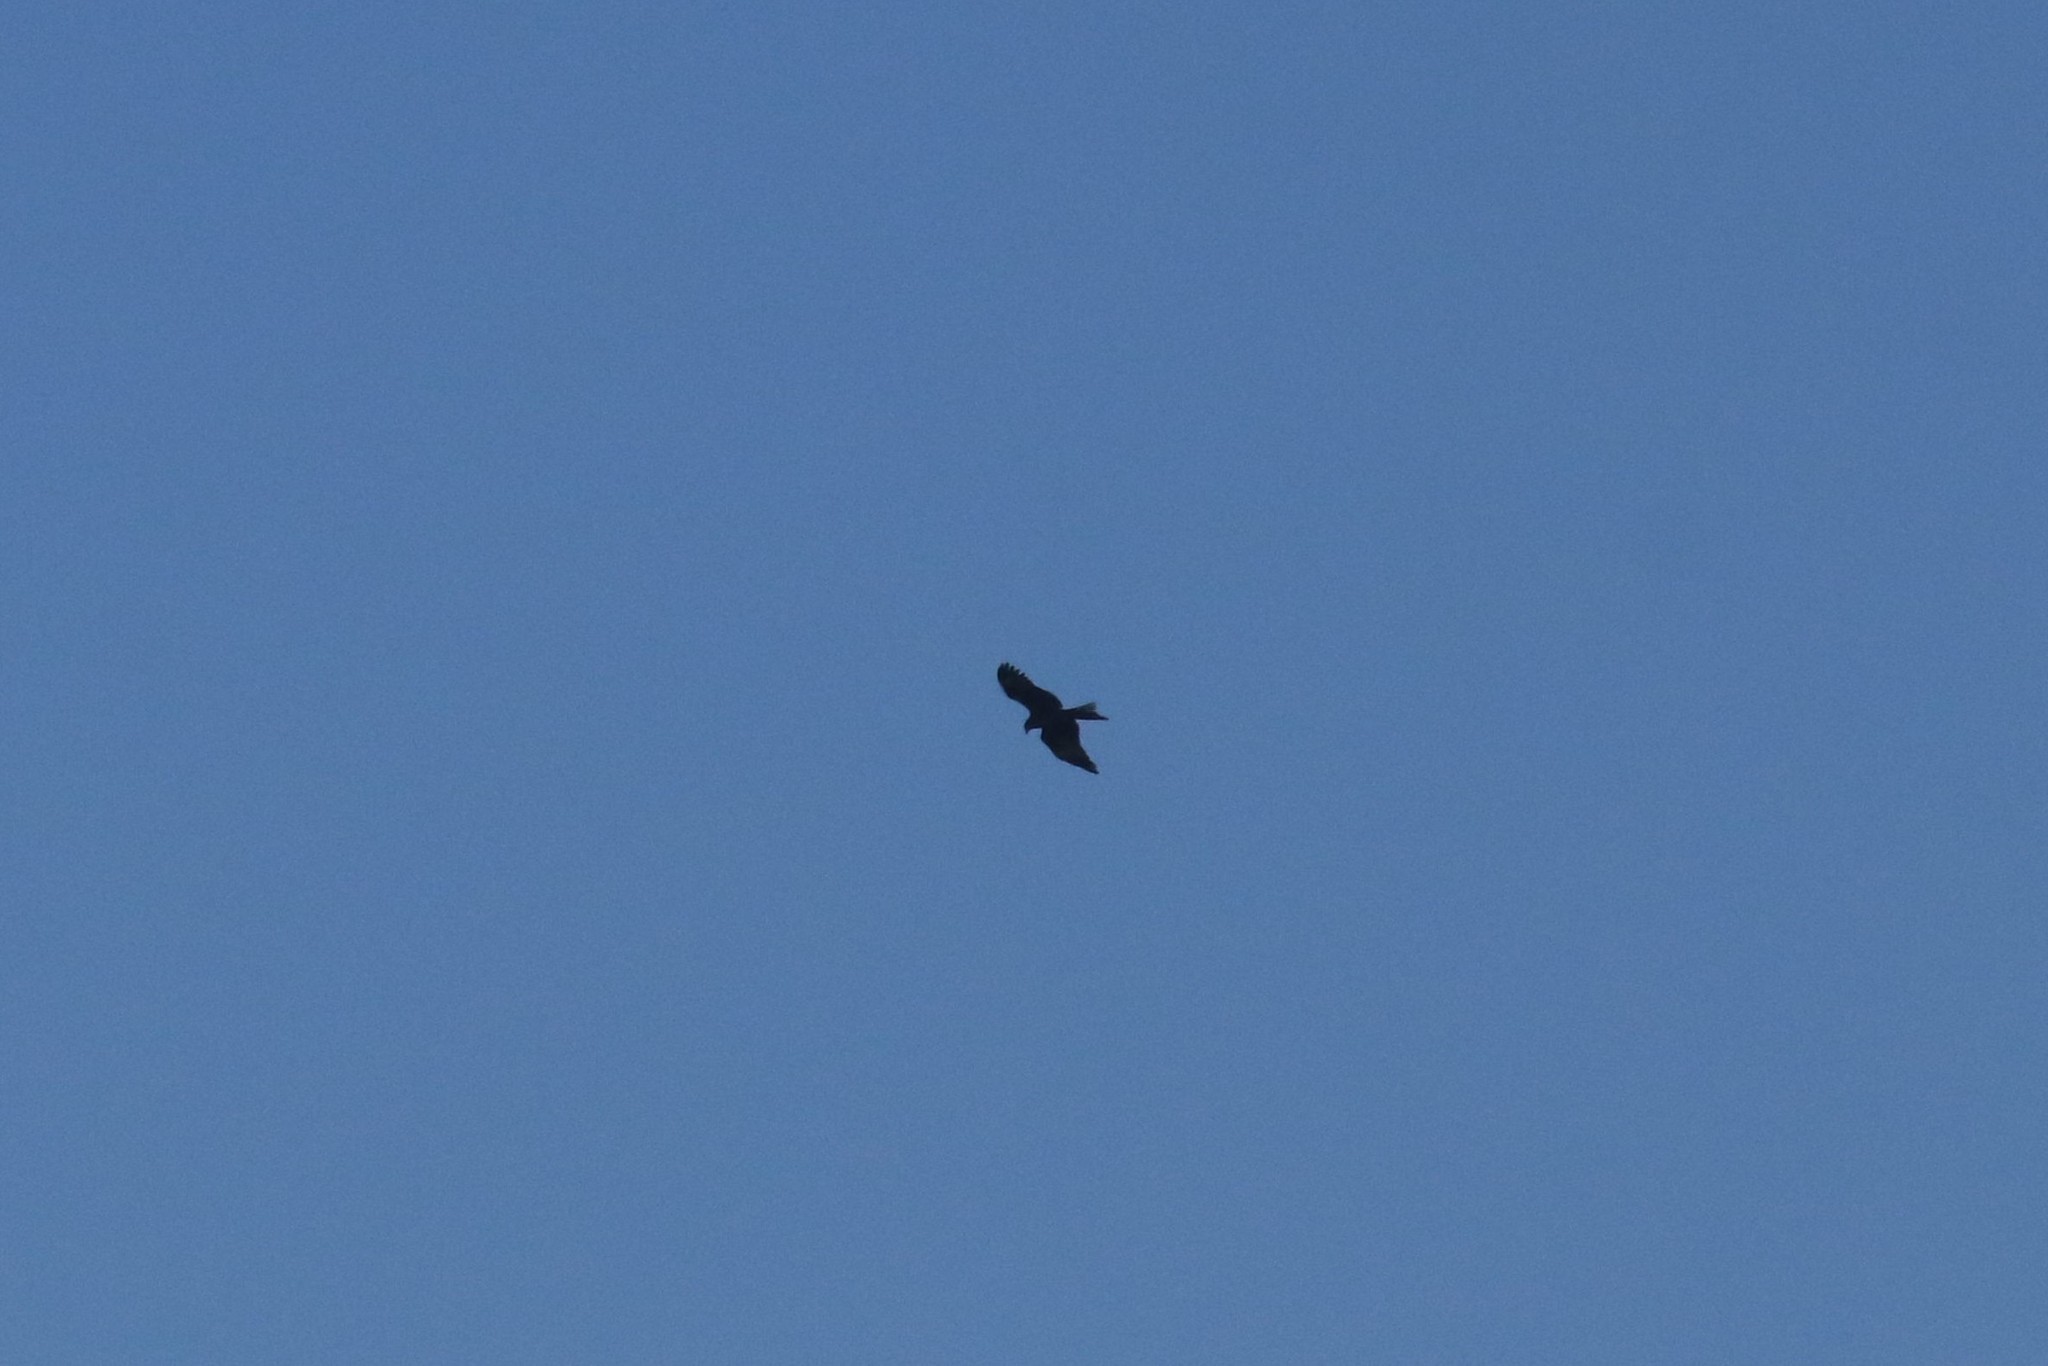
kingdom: Animalia
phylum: Chordata
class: Aves
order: Accipitriformes
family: Accipitridae
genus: Milvus
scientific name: Milvus migrans
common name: Black kite
